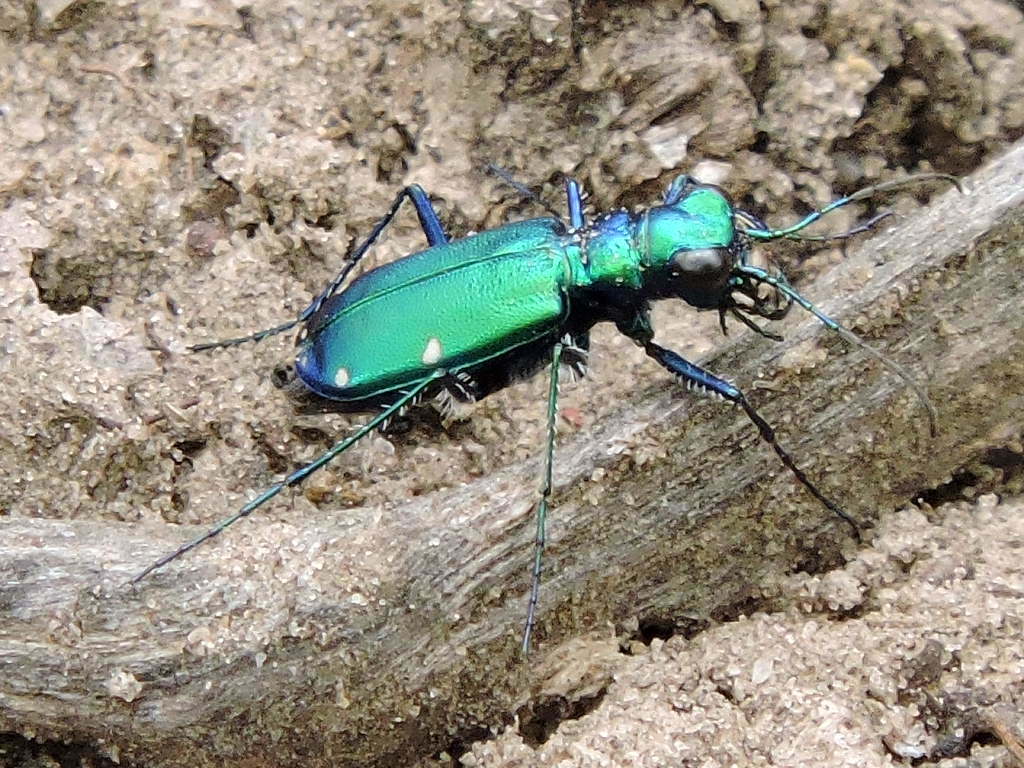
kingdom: Animalia
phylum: Arthropoda
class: Insecta
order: Coleoptera
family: Carabidae
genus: Cicindela
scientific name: Cicindela sexguttata
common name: Six-spotted tiger beetle
